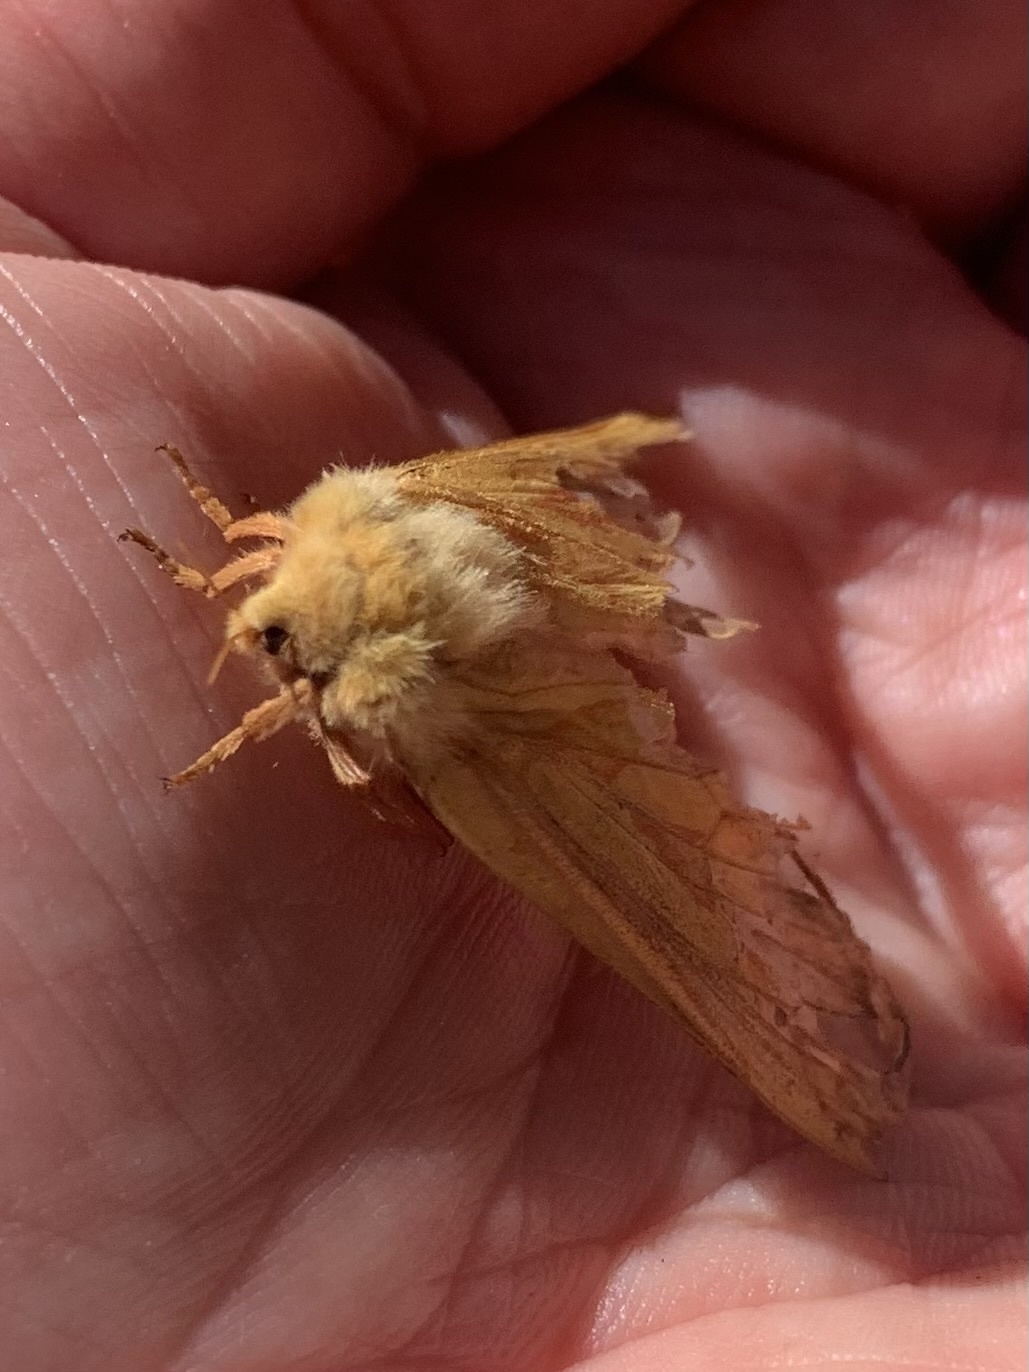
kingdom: Animalia
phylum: Arthropoda
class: Insecta
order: Lepidoptera
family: Hepialidae
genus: Hepialus
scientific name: Hepialus humuli
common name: Ghost moth
